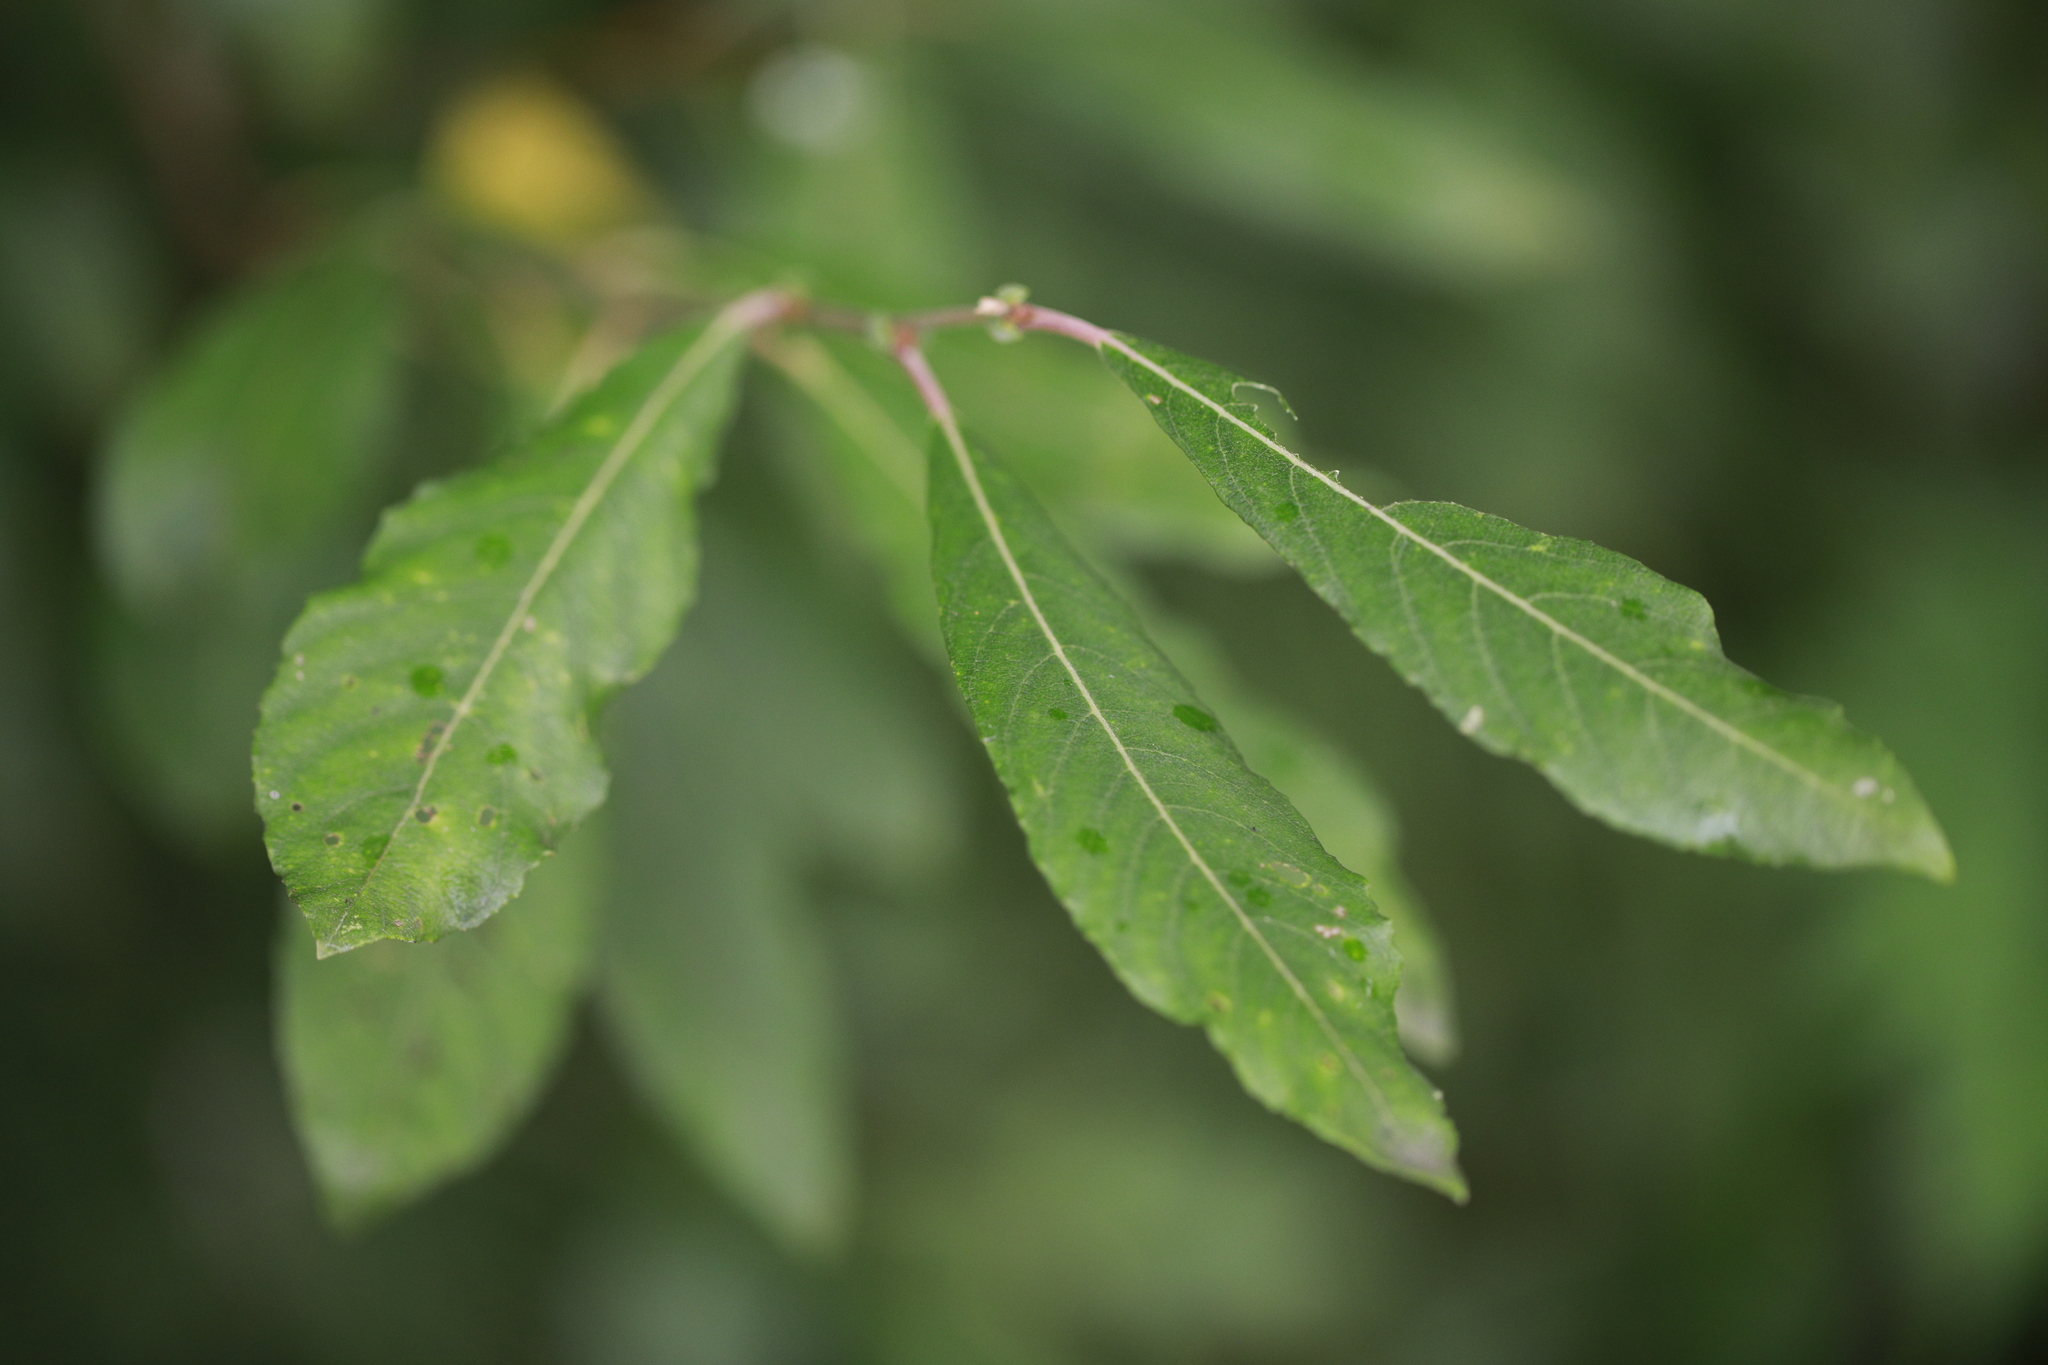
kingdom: Plantae
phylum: Tracheophyta
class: Magnoliopsida
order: Malpighiales
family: Salicaceae
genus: Salix
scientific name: Salix atrocinerea
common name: Rusty willow
